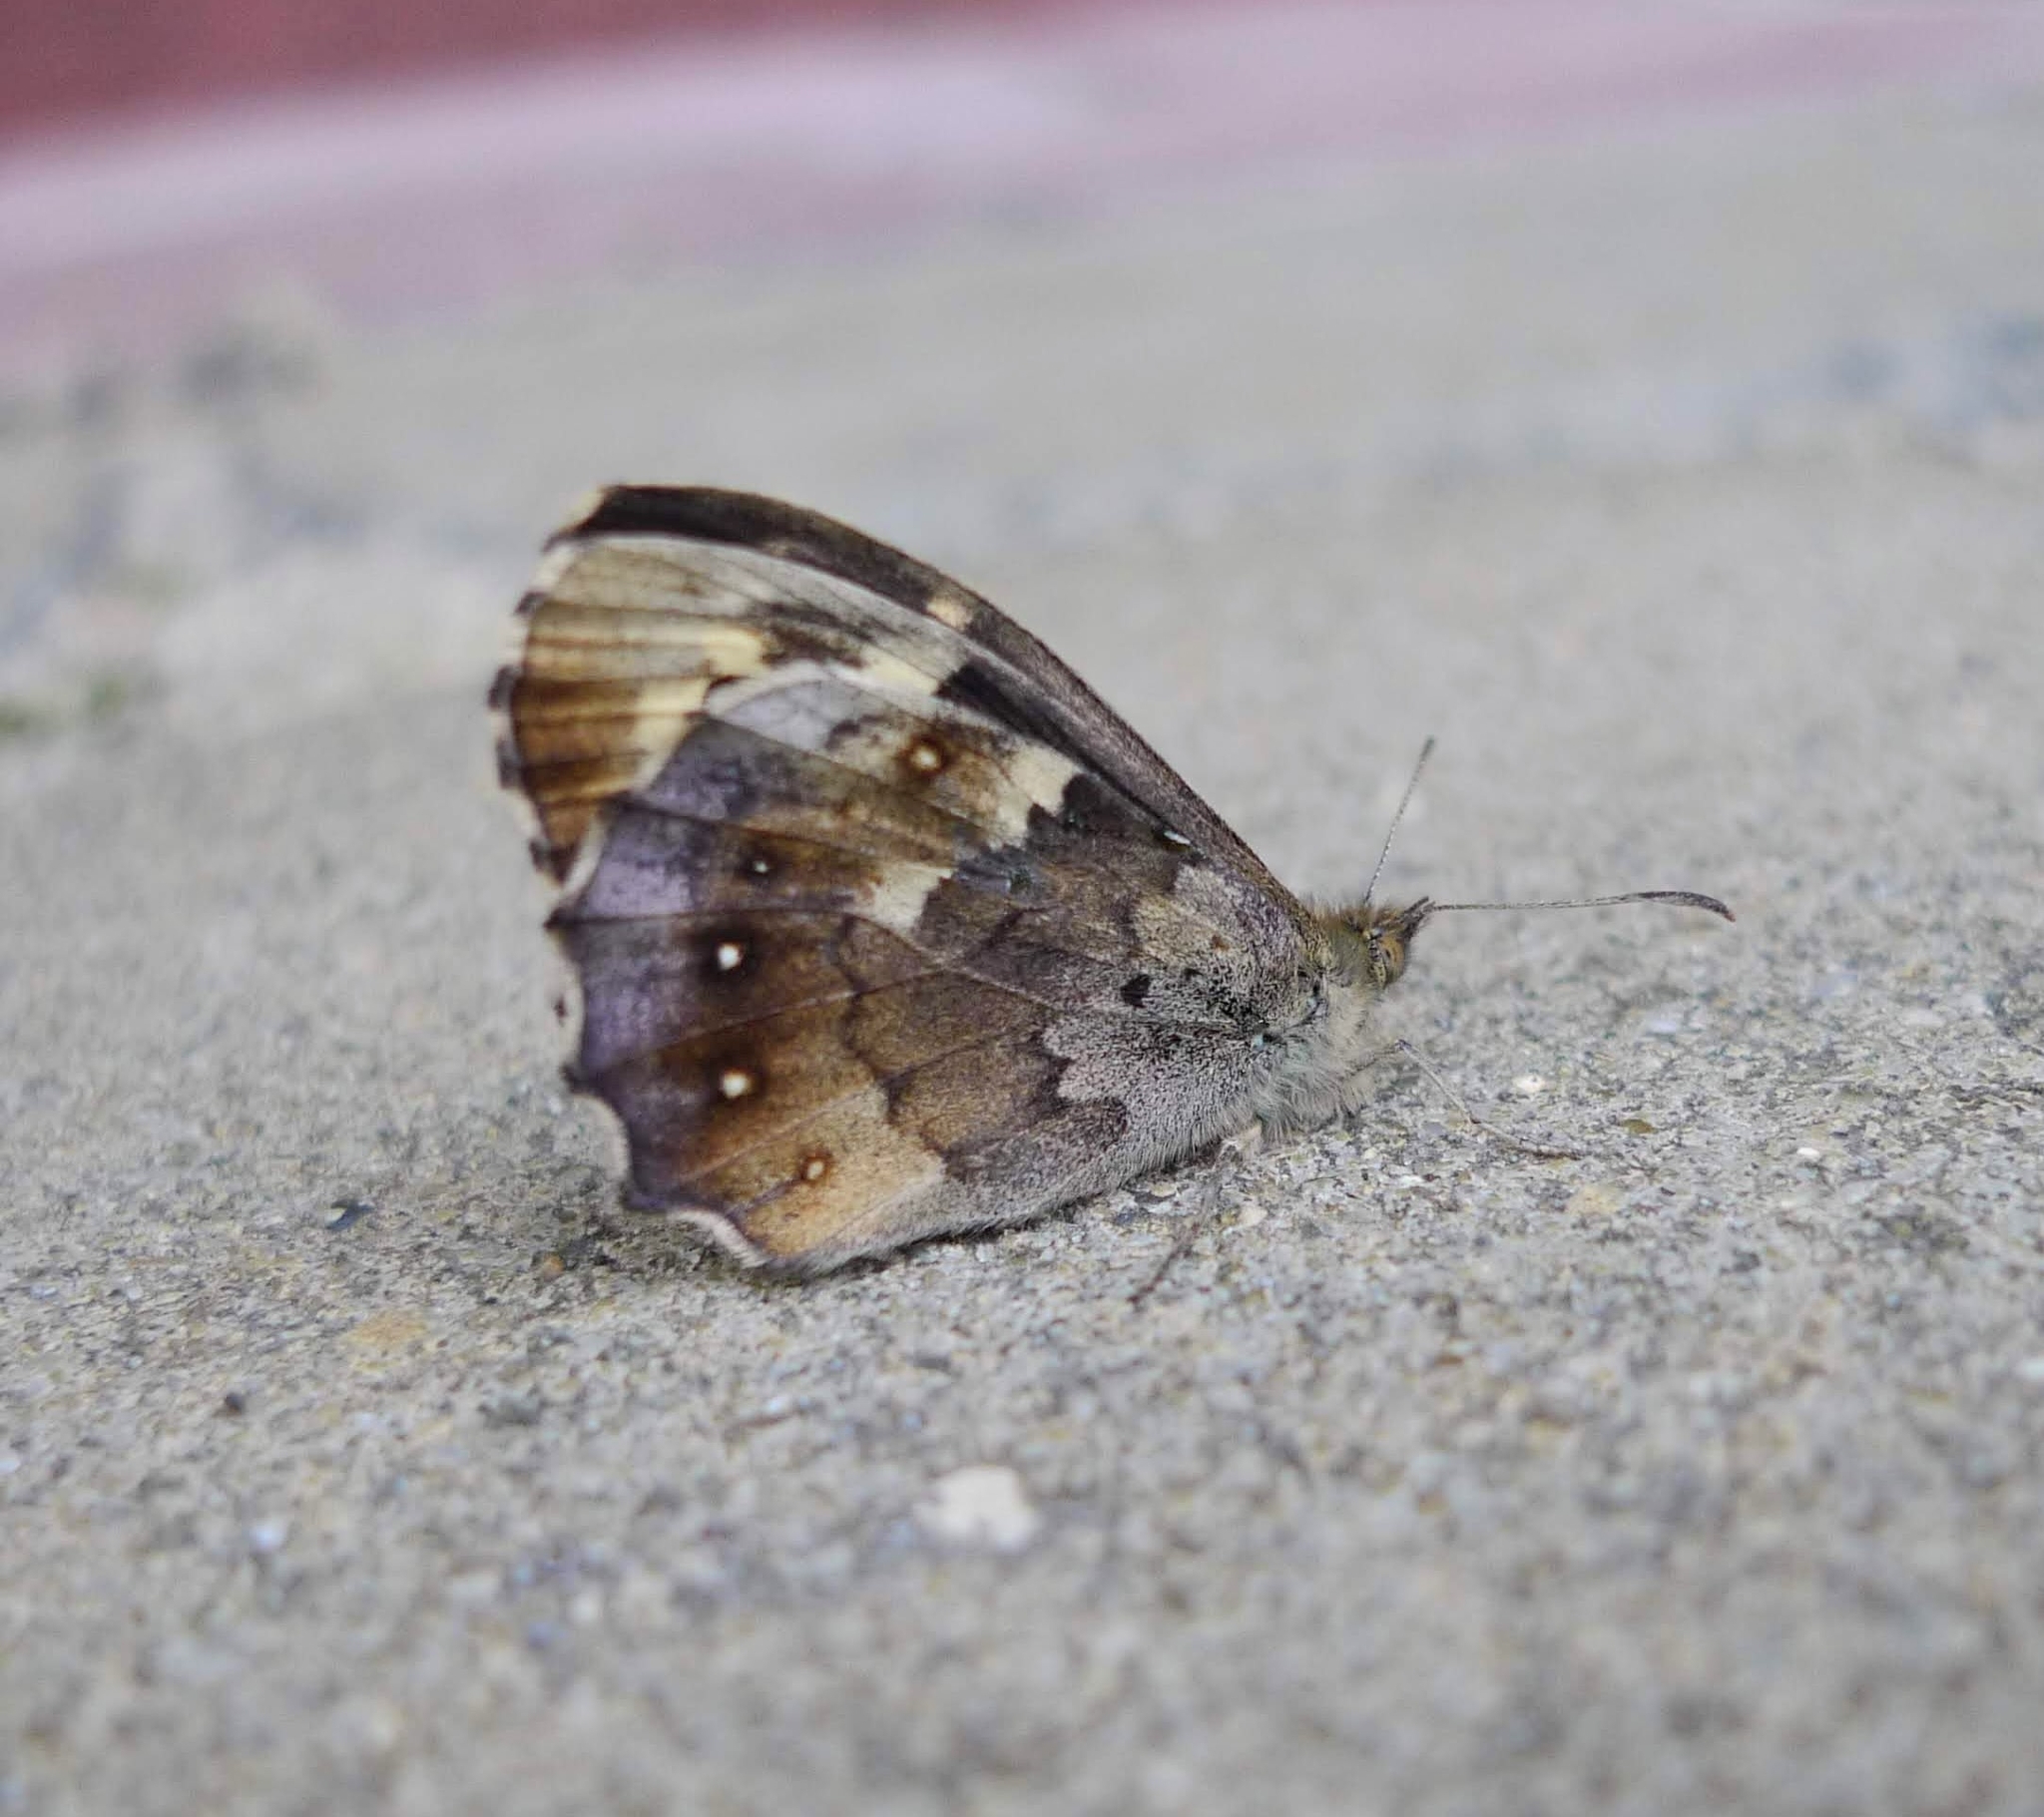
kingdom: Animalia
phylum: Arthropoda
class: Insecta
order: Lepidoptera
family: Nymphalidae
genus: Pararge
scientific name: Pararge aegeria
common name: Speckled wood
